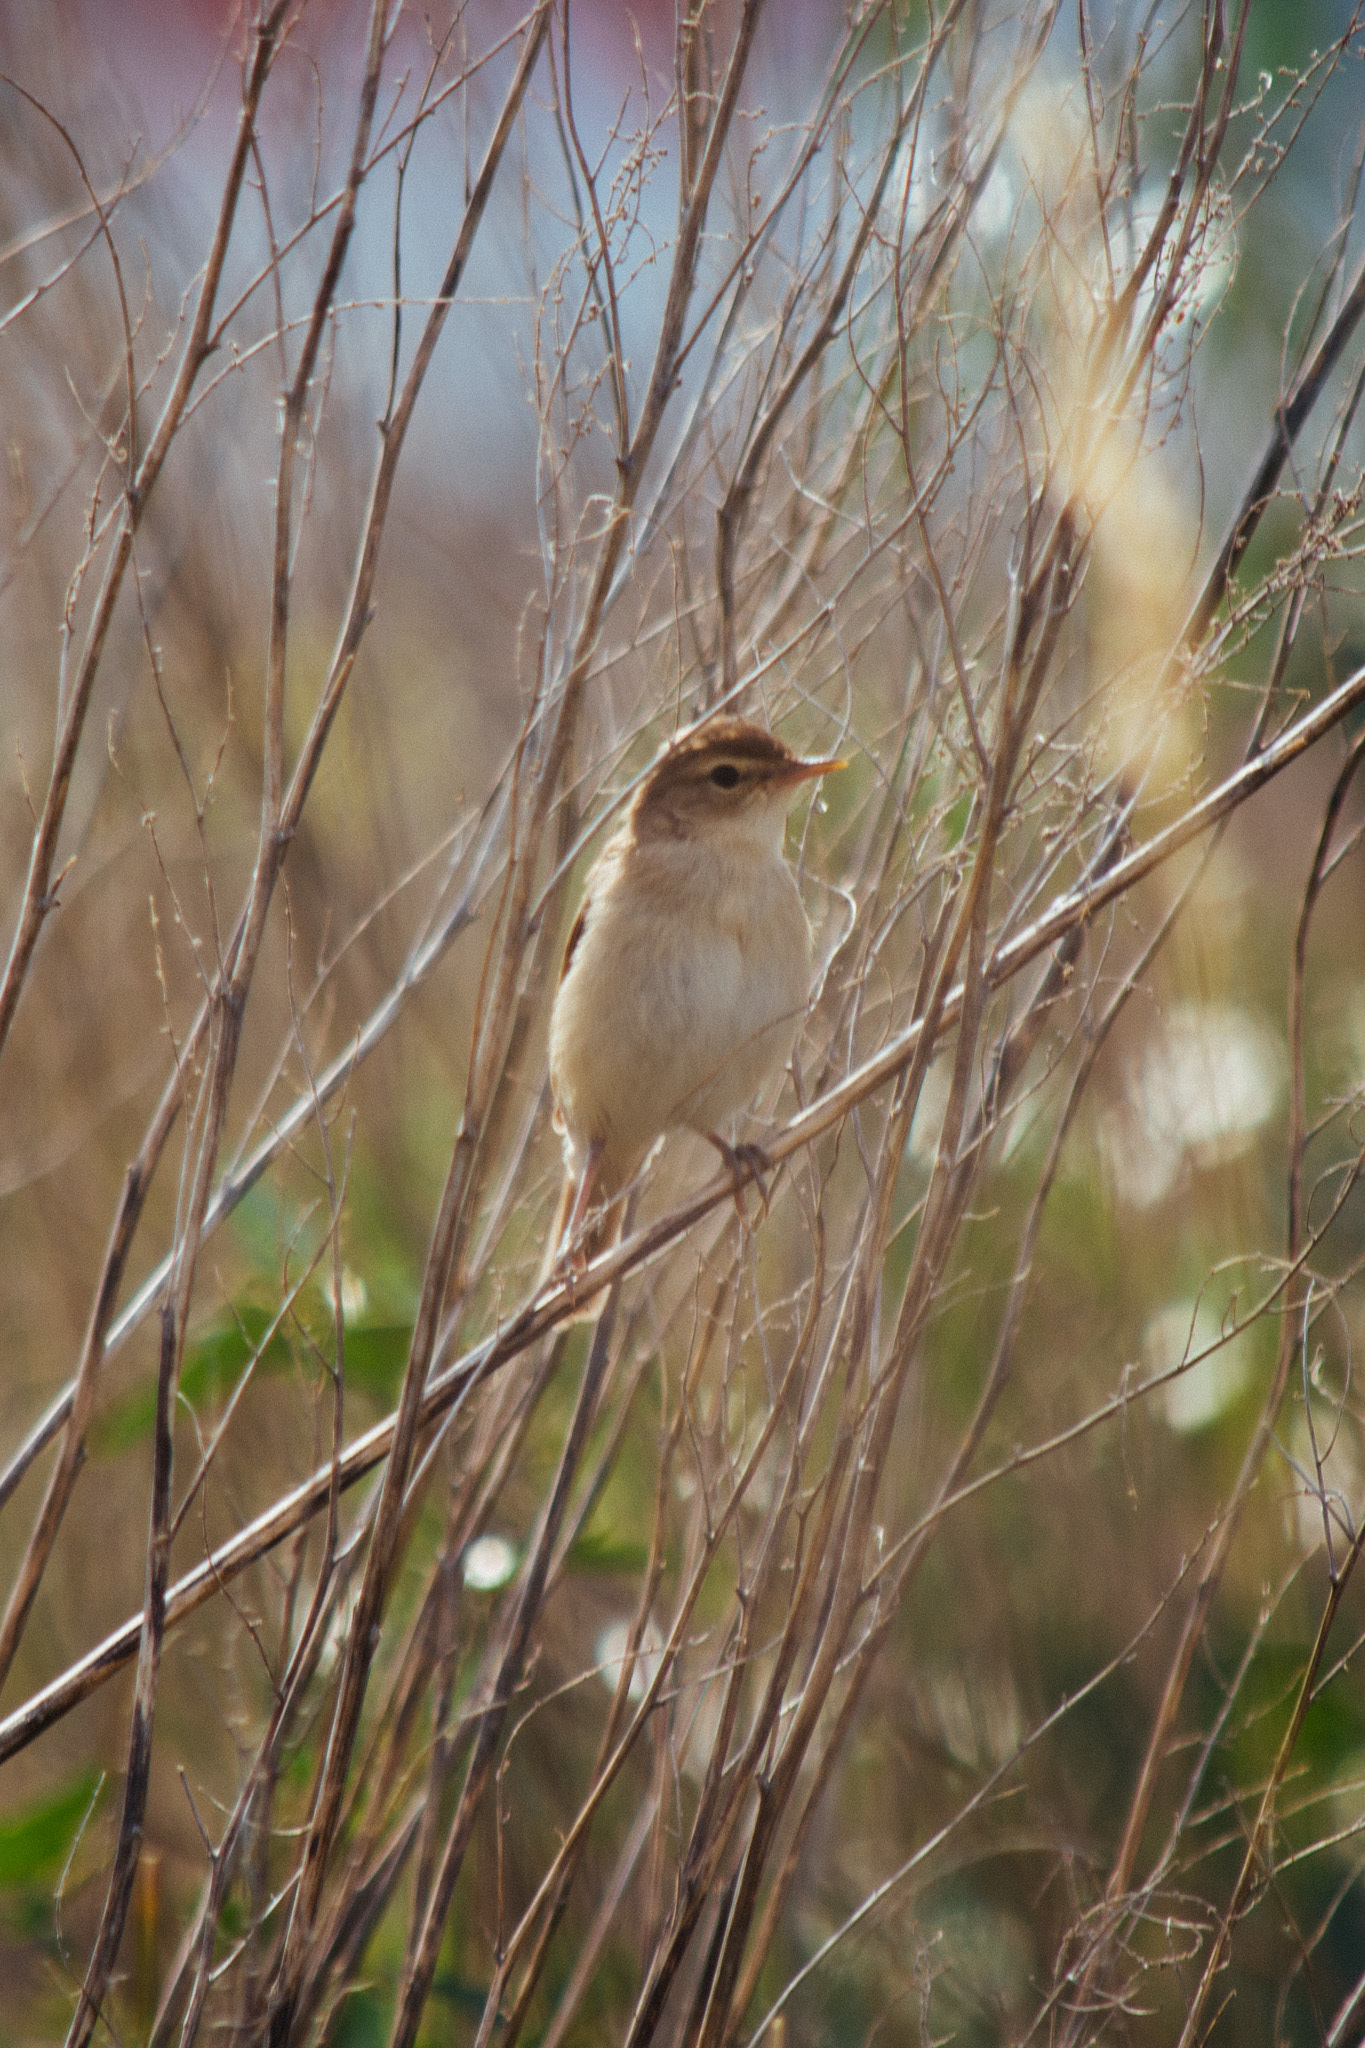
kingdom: Animalia
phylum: Chordata
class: Aves
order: Passeriformes
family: Acrocephalidae
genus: Iduna
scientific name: Iduna caligata
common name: Booted warbler
